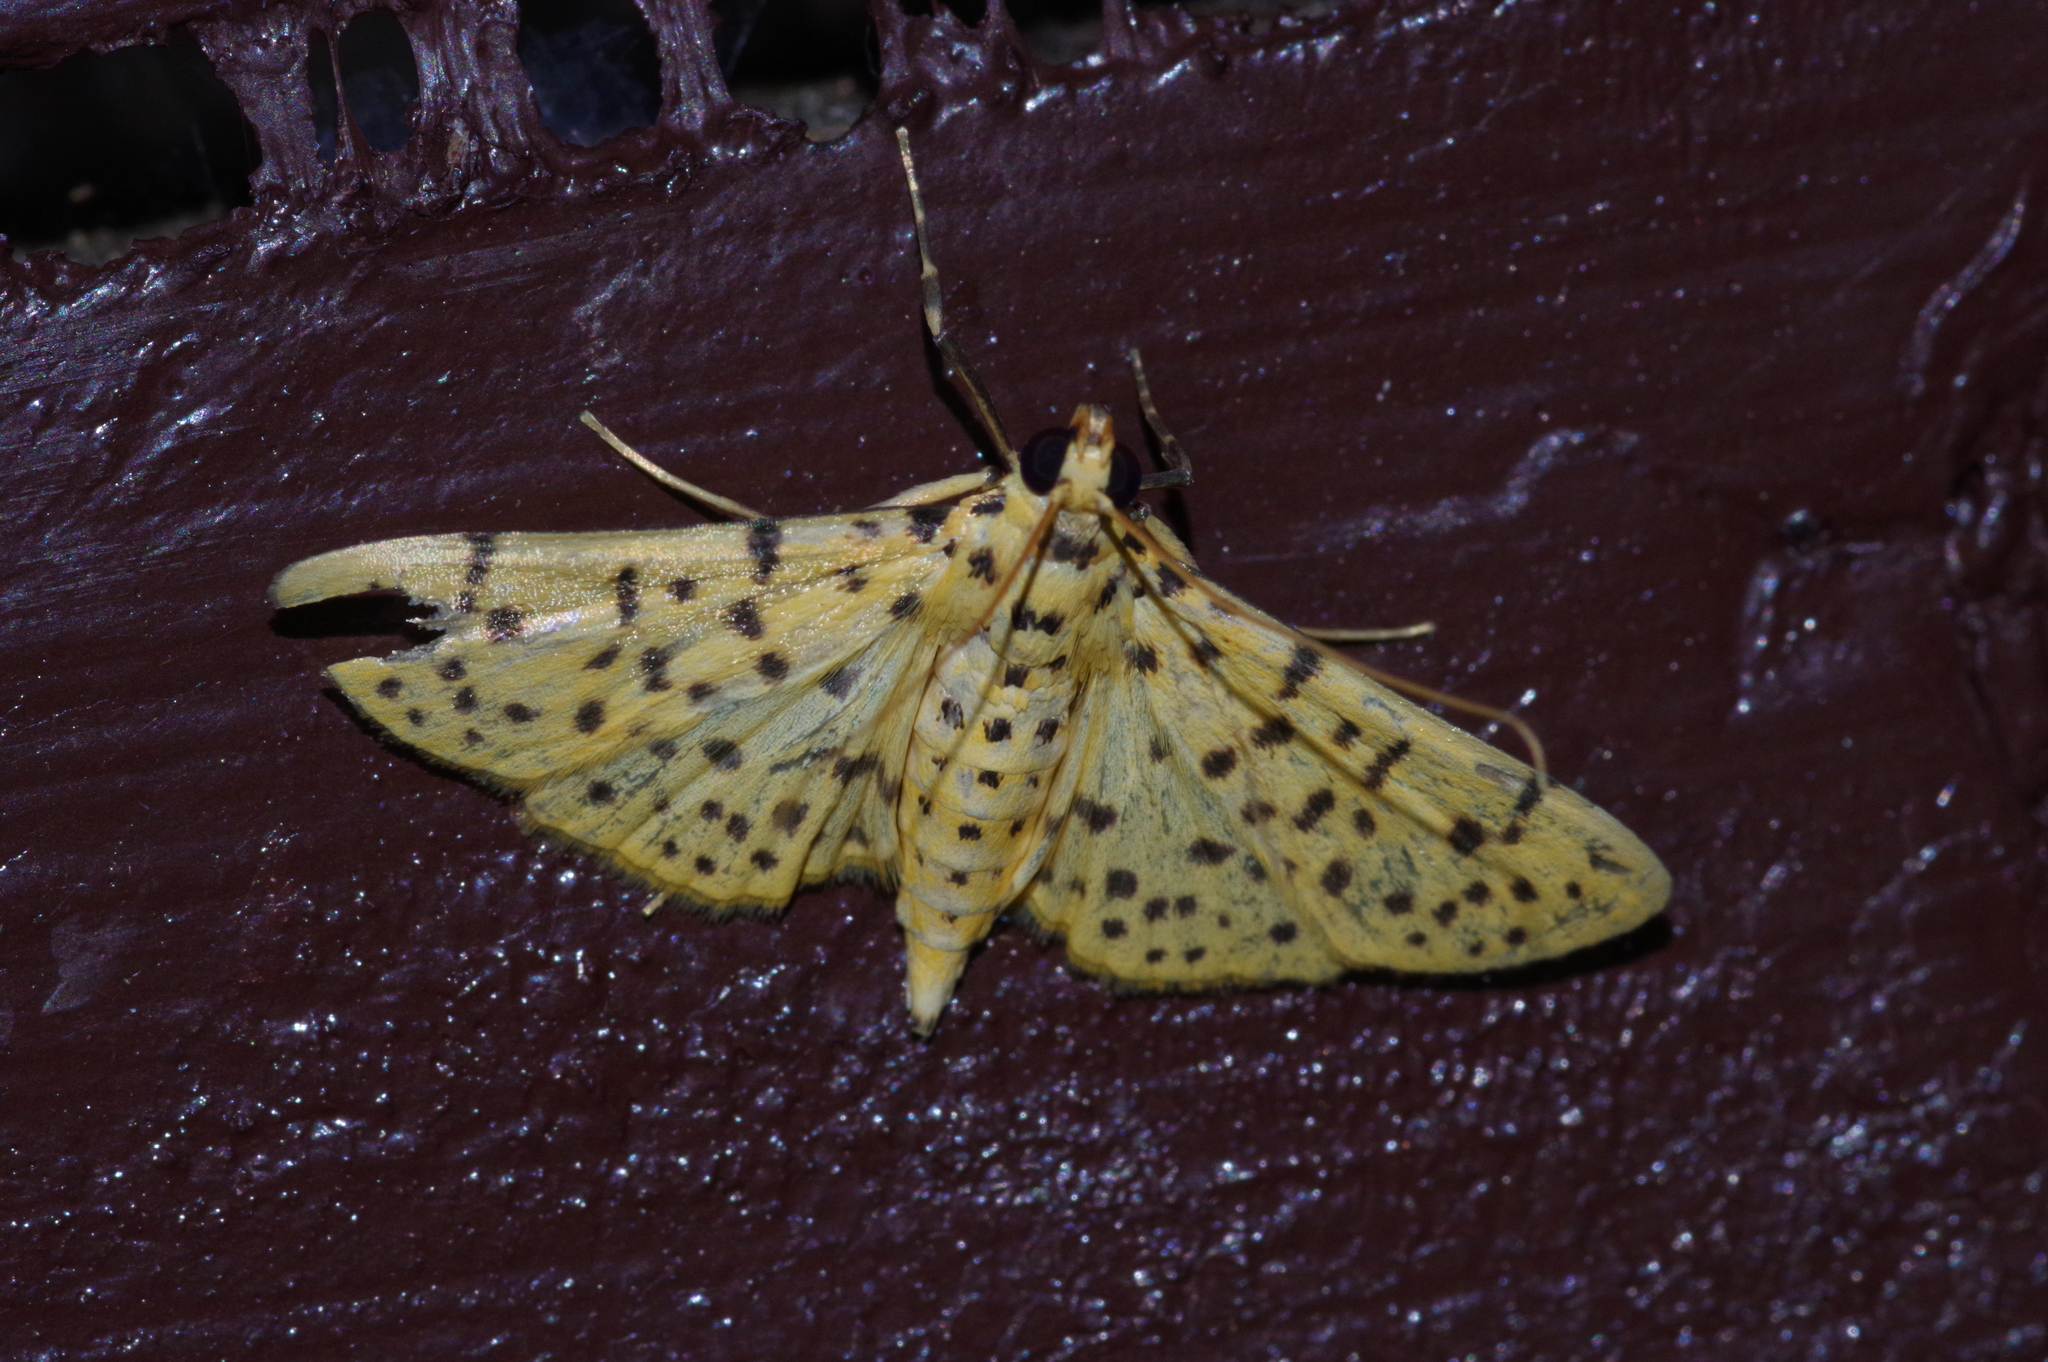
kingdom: Animalia
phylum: Arthropoda
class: Insecta
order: Lepidoptera
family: Crambidae
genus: Conogethes
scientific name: Conogethes punctiferalis
